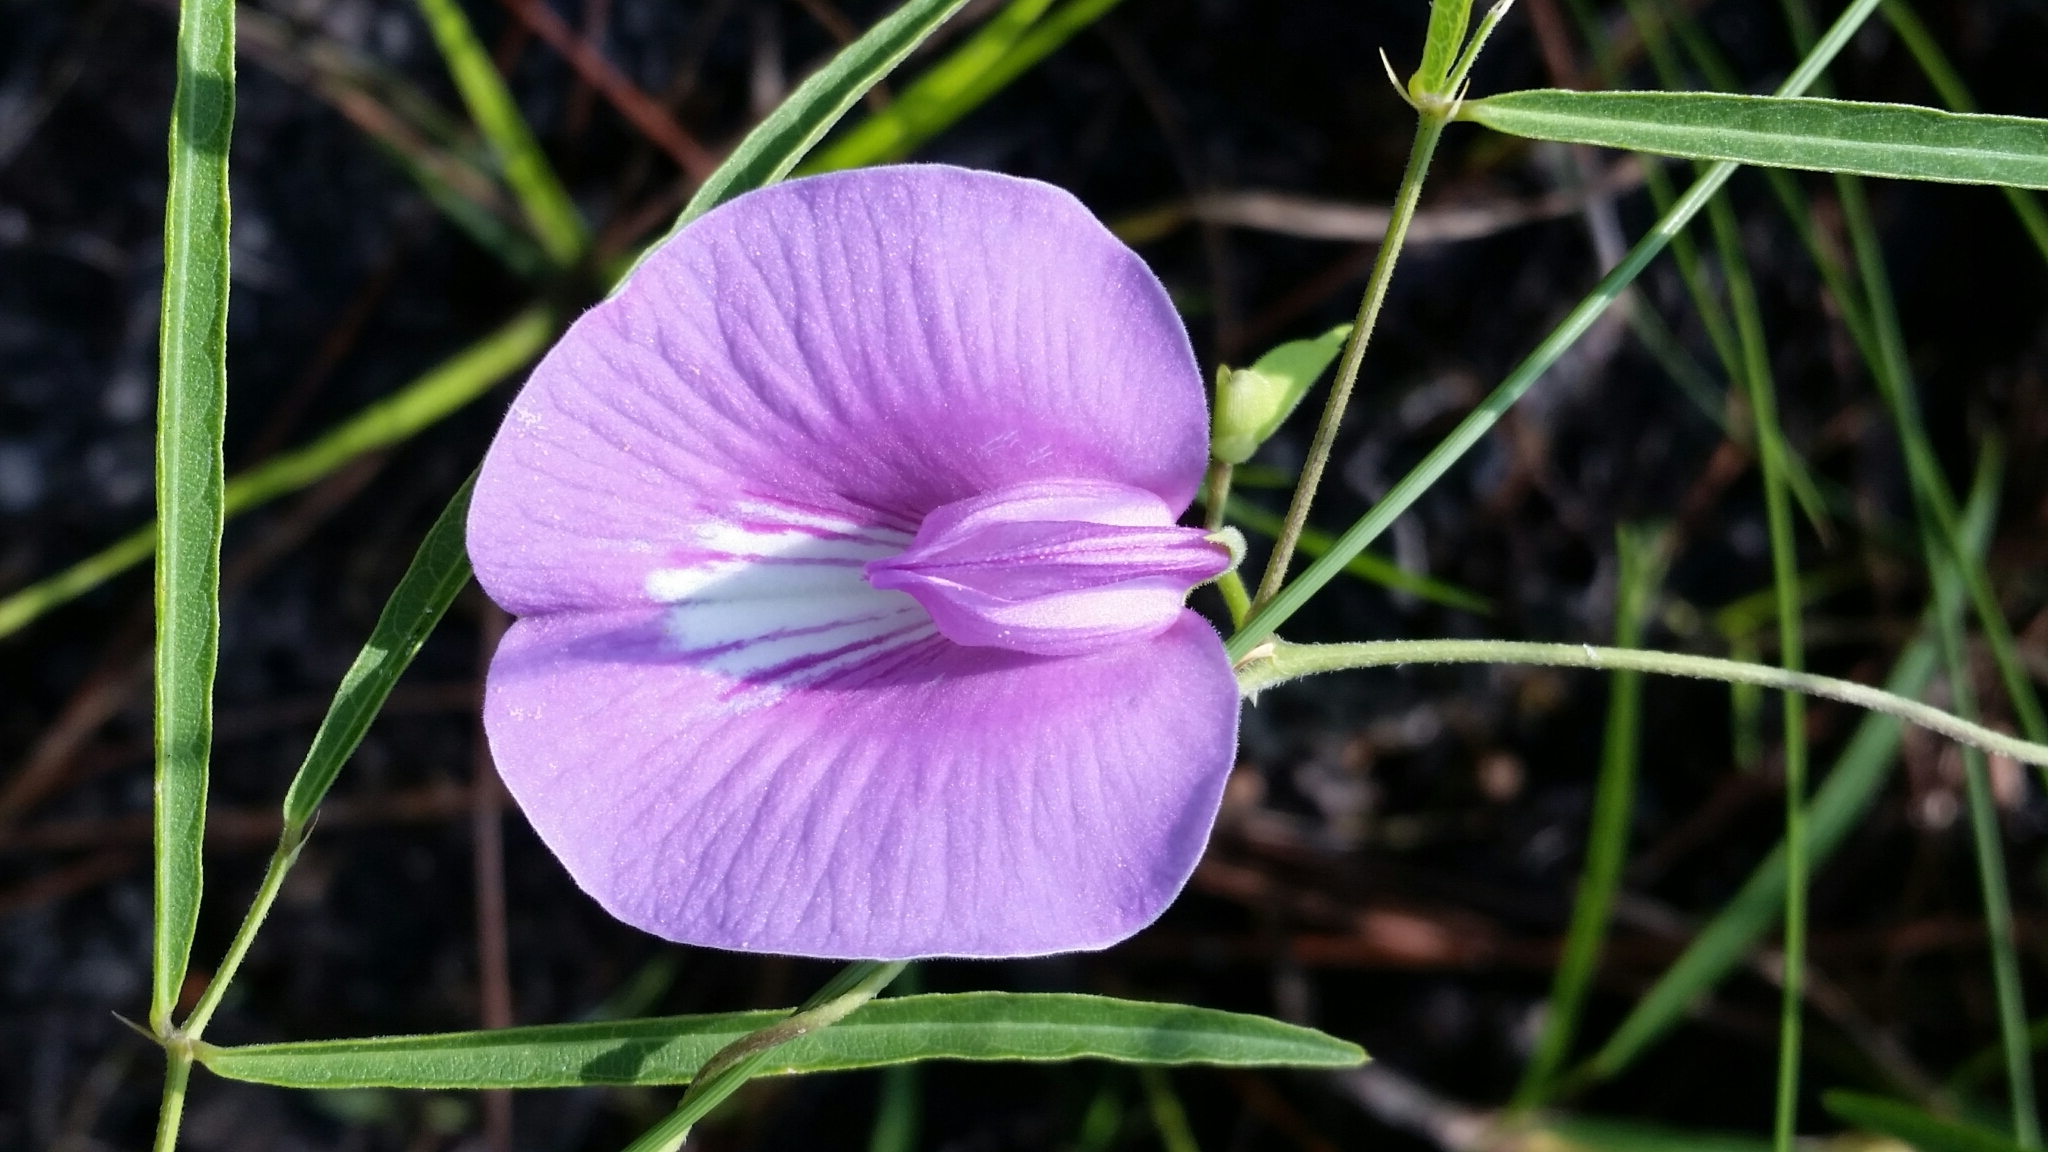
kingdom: Plantae
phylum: Tracheophyta
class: Magnoliopsida
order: Fabales
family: Fabaceae
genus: Centrosema
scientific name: Centrosema virginianum
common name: Butterfly-pea
